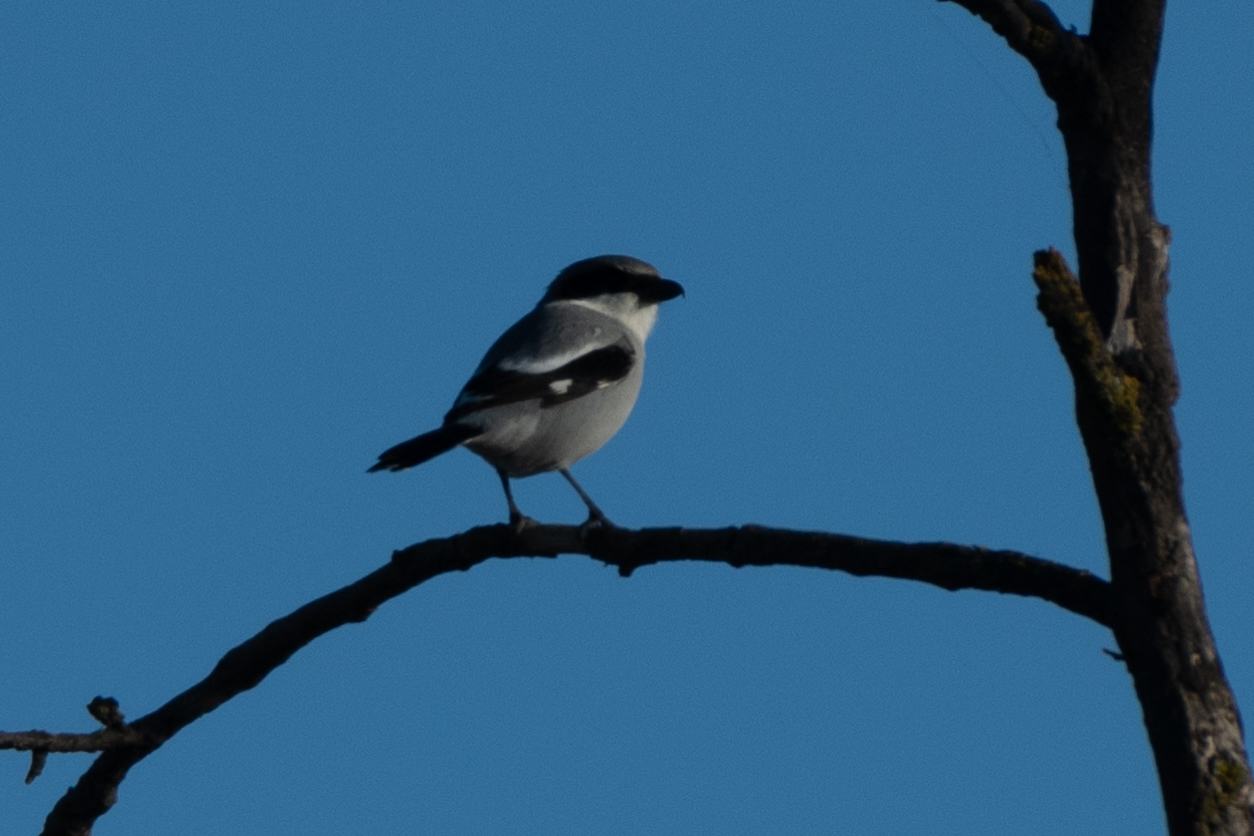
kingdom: Animalia
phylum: Chordata
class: Aves
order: Passeriformes
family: Laniidae
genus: Lanius
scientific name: Lanius ludovicianus
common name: Loggerhead shrike
